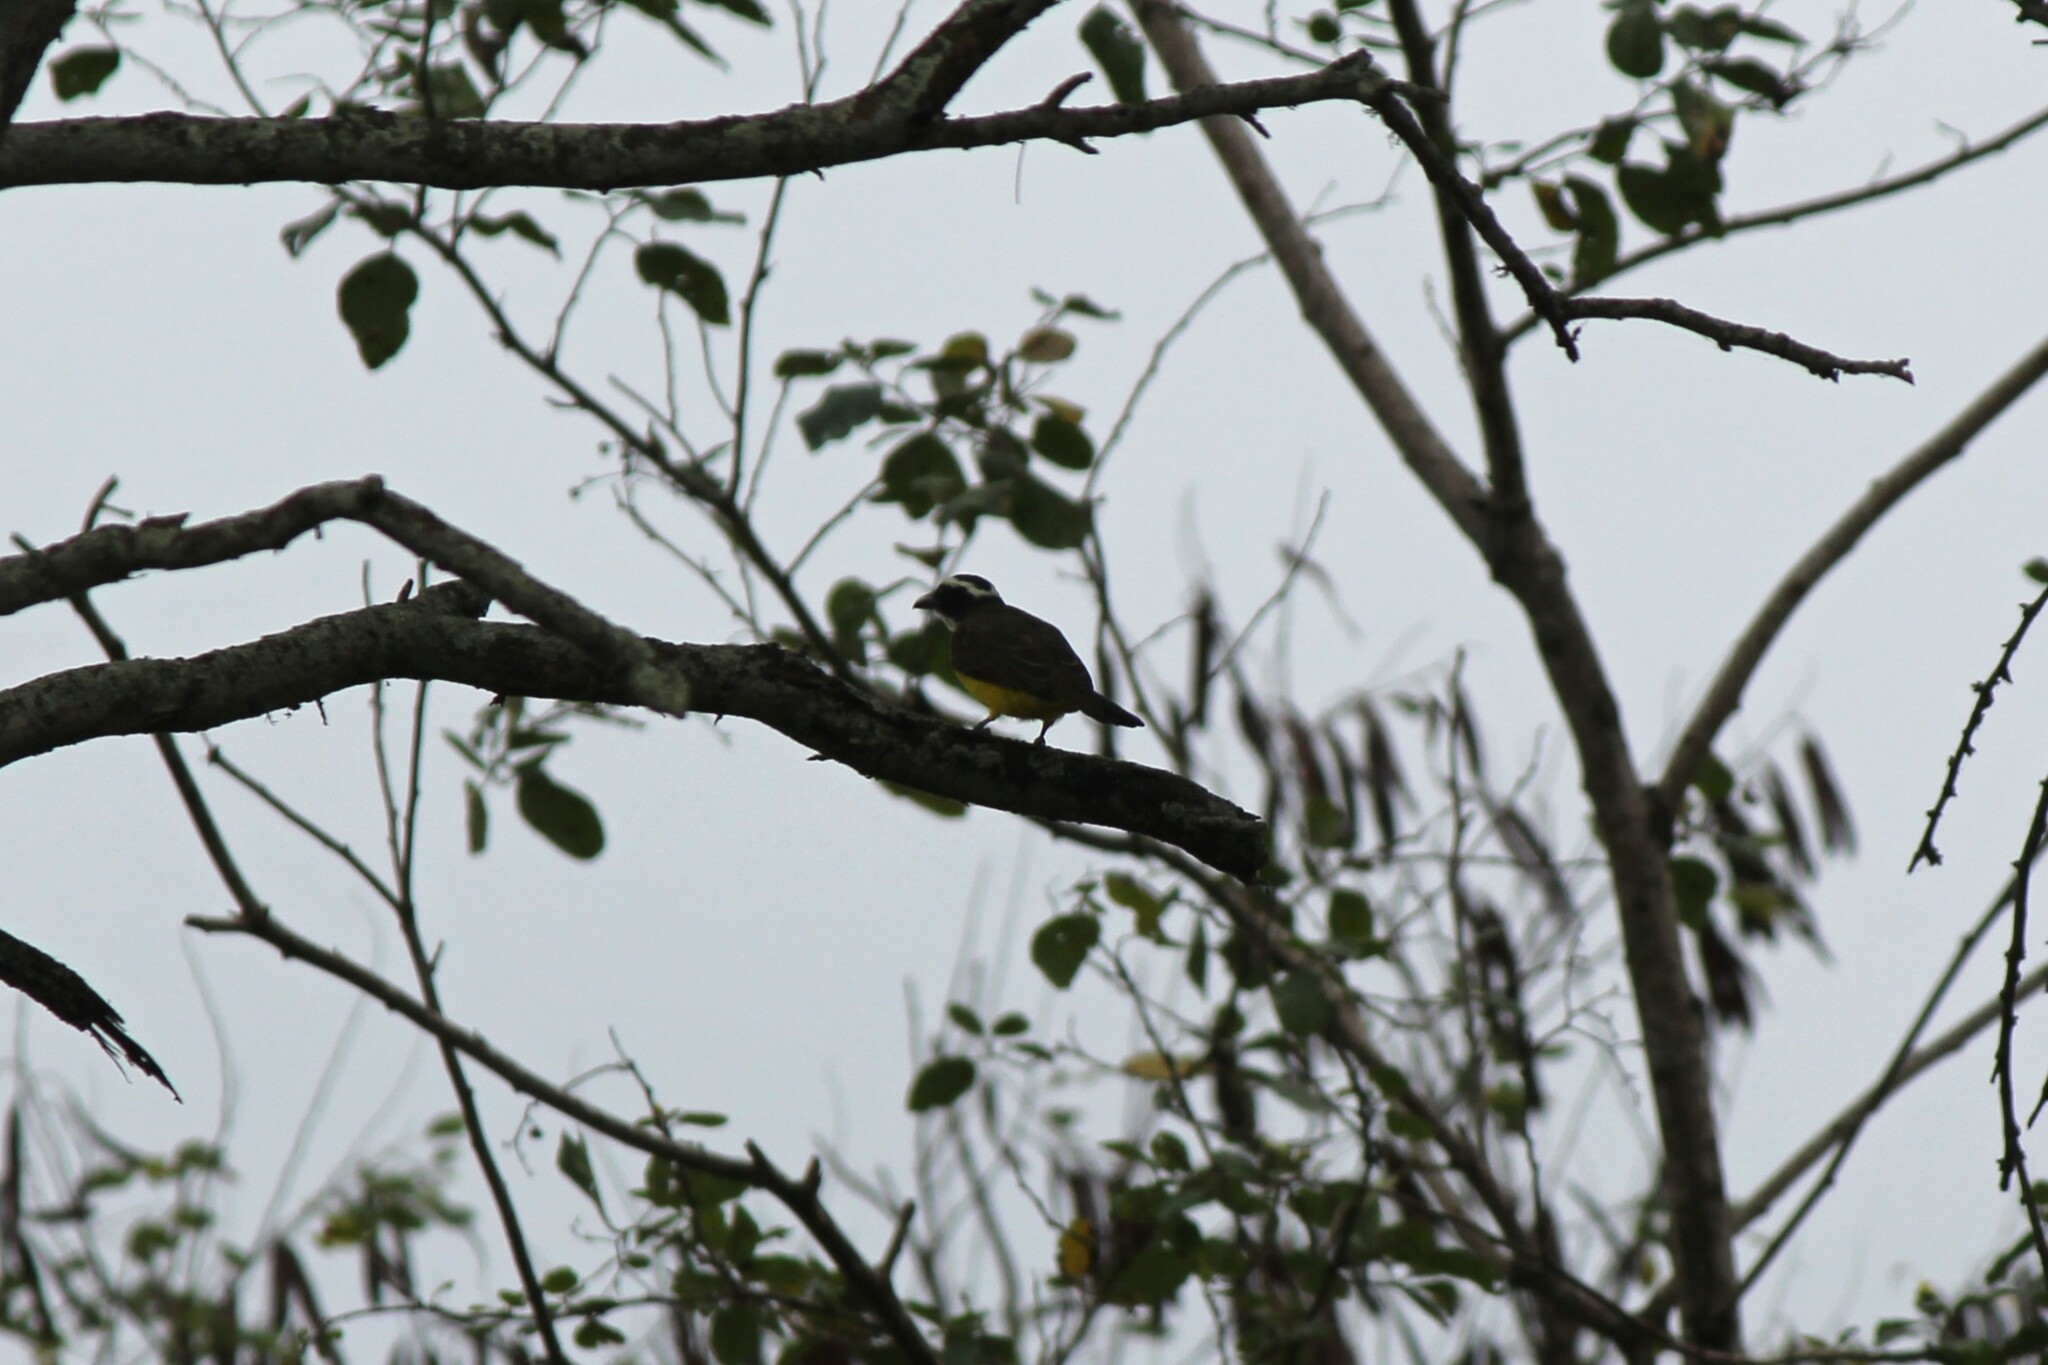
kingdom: Animalia
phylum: Chordata
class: Aves
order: Passeriformes
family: Tyrannidae
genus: Megarynchus
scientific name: Megarynchus pitangua
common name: Boat-billed flycatcher
